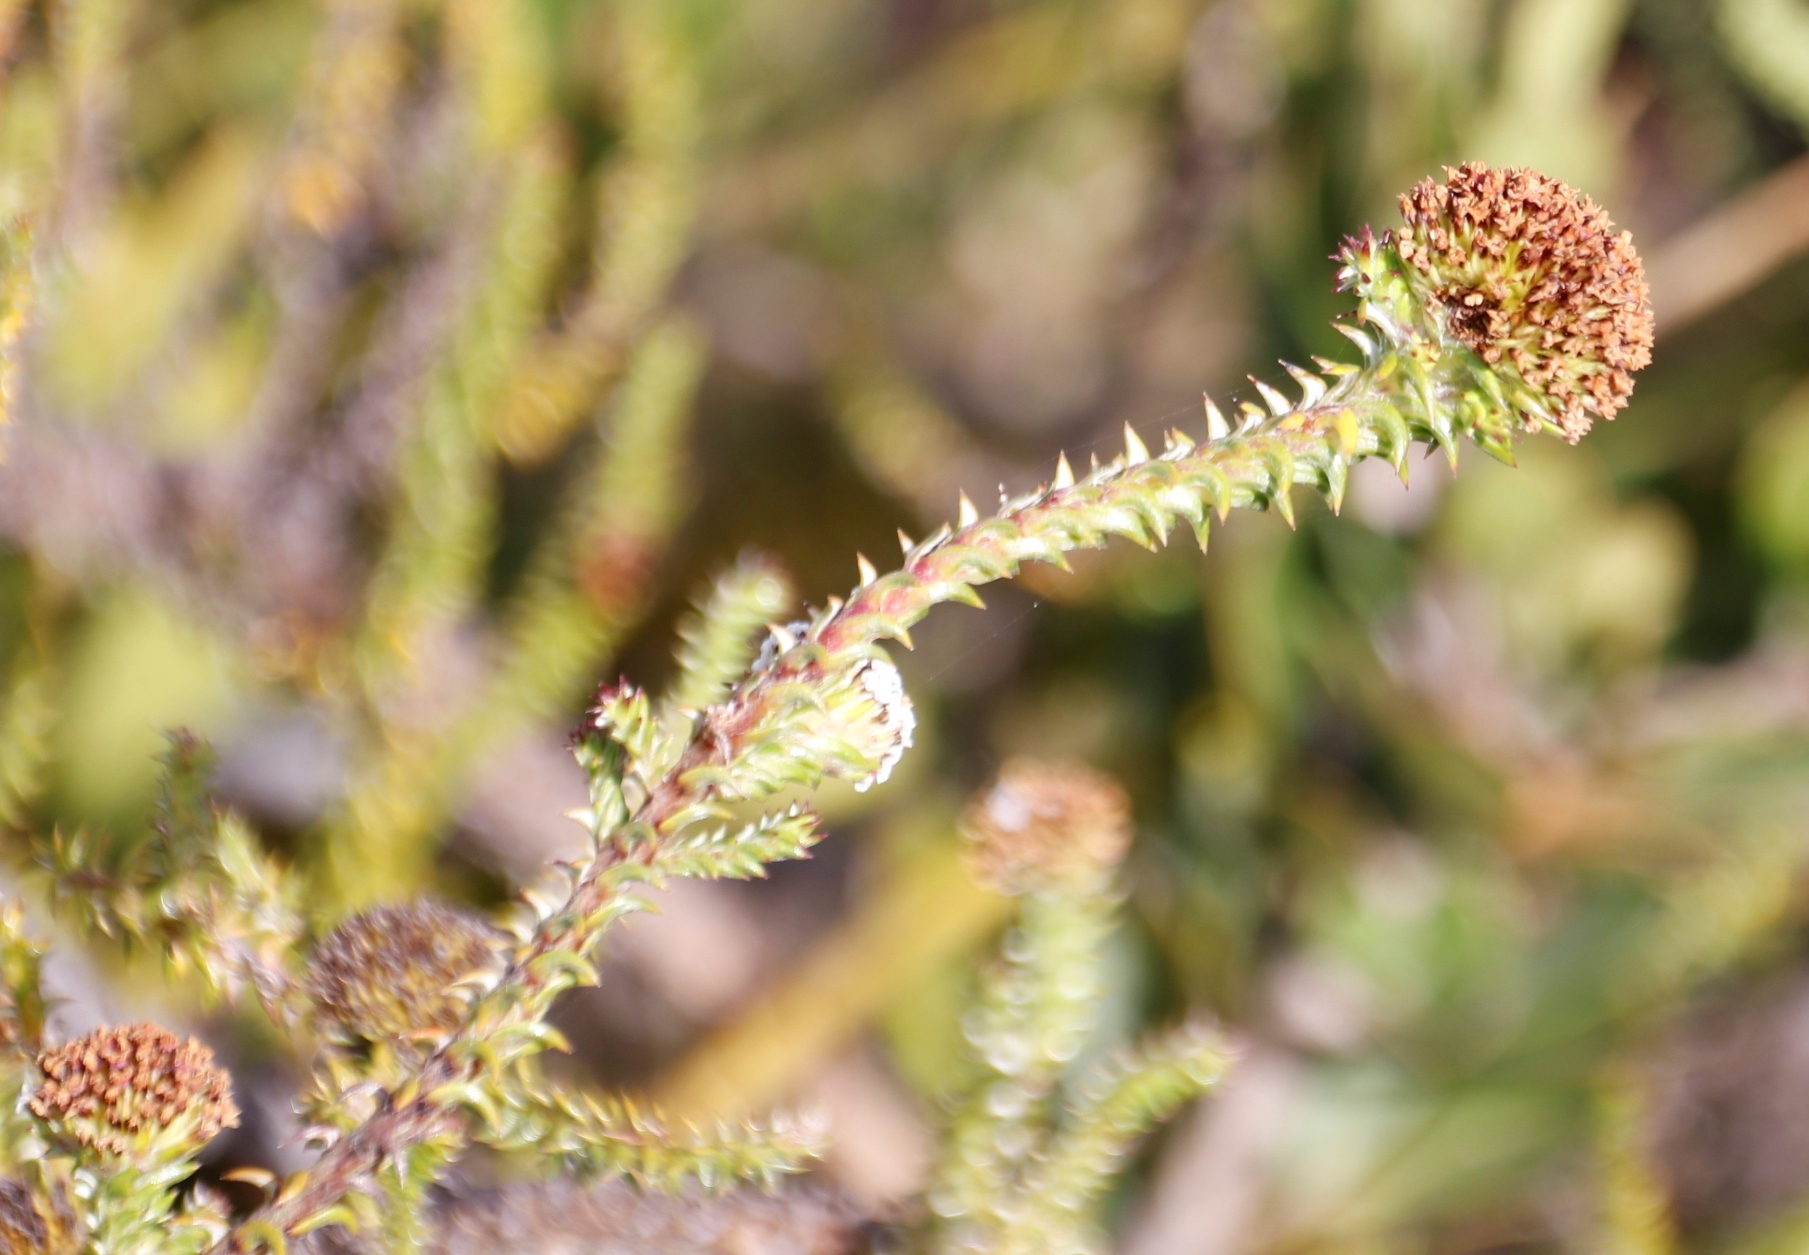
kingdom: Plantae
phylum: Tracheophyta
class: Magnoliopsida
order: Asterales
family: Asteraceae
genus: Stoebe
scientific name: Stoebe aethiopica
